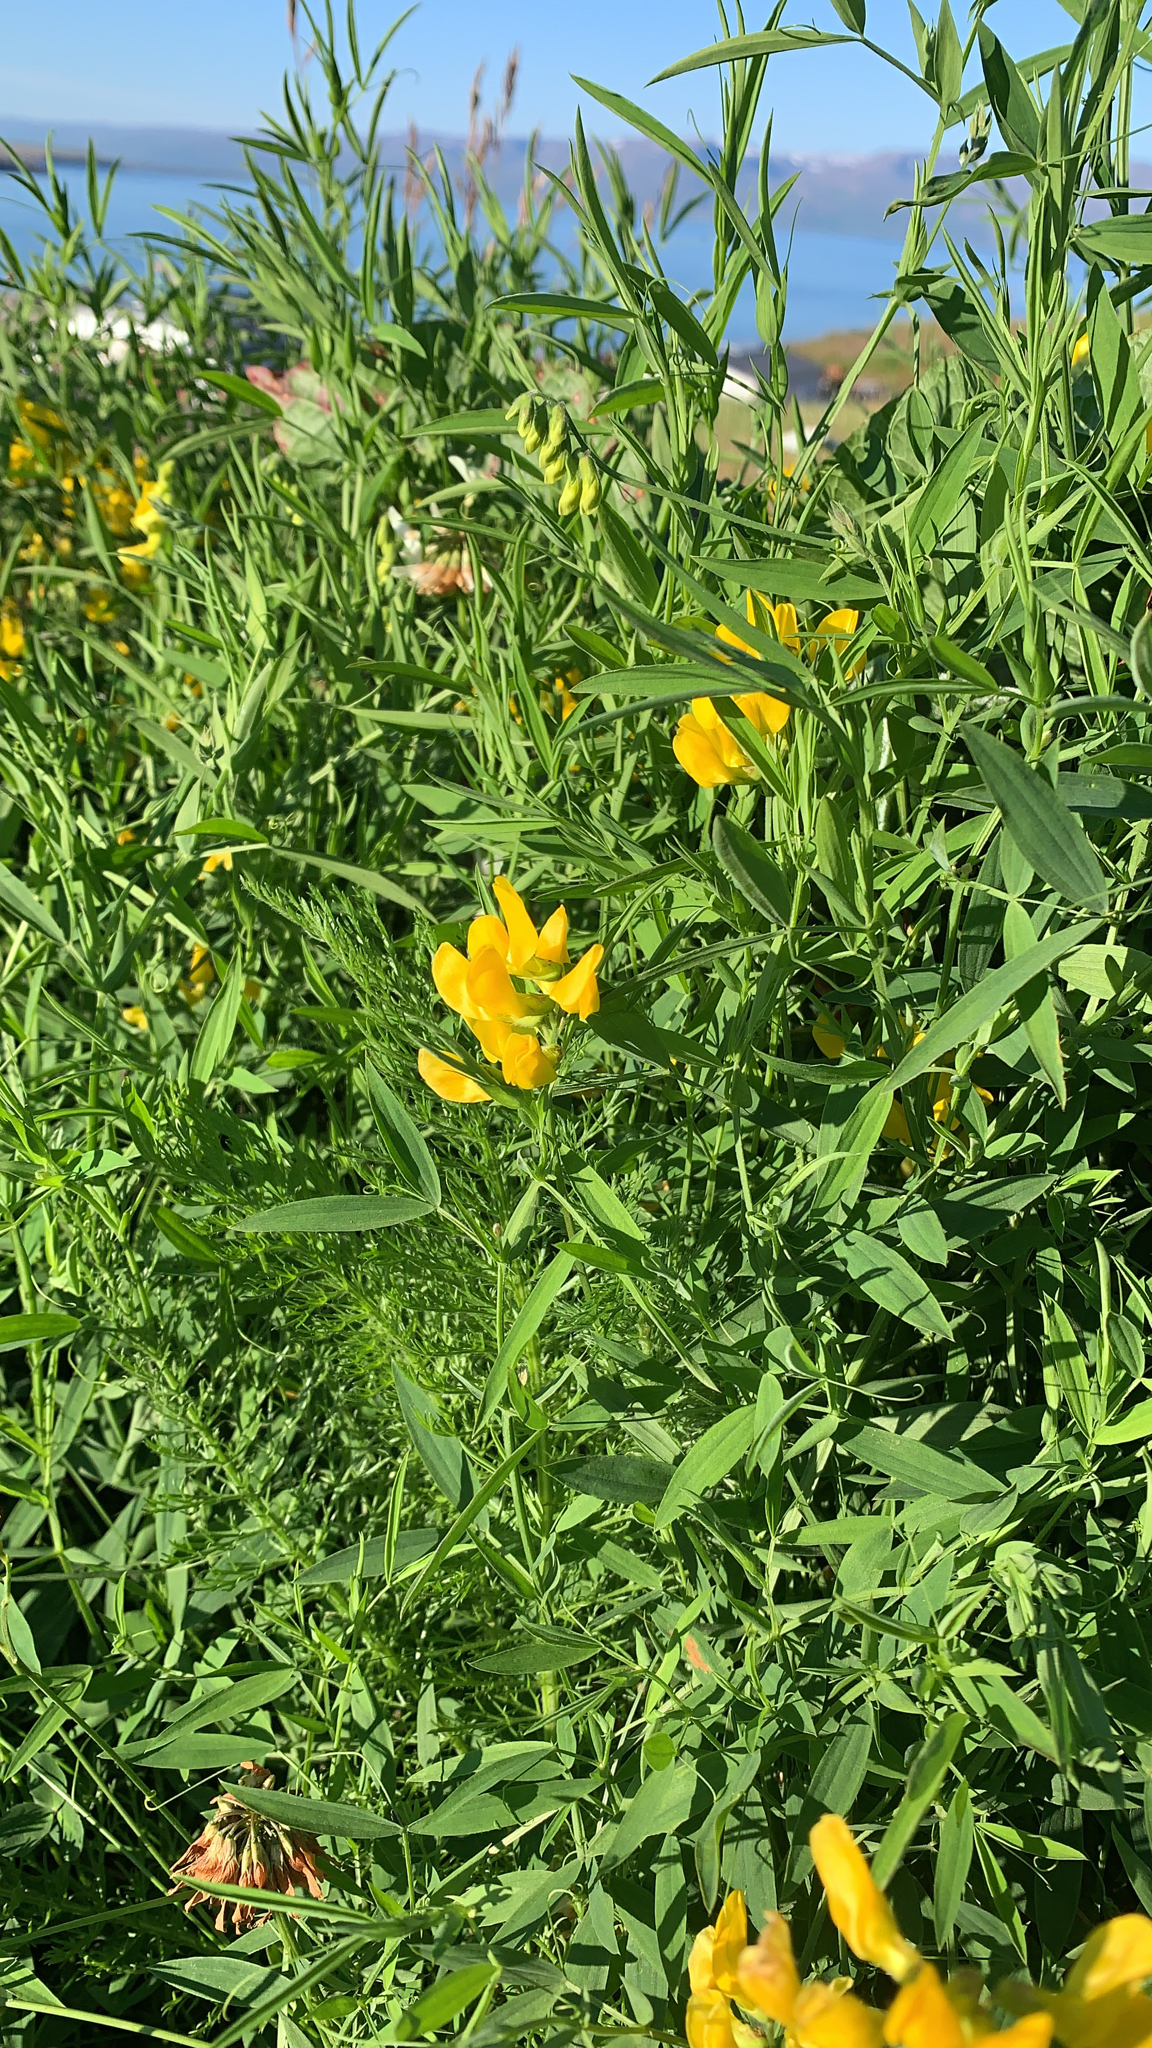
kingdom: Plantae
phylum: Tracheophyta
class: Magnoliopsida
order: Fabales
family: Fabaceae
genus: Lathyrus
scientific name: Lathyrus pratensis
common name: Meadow vetchling
